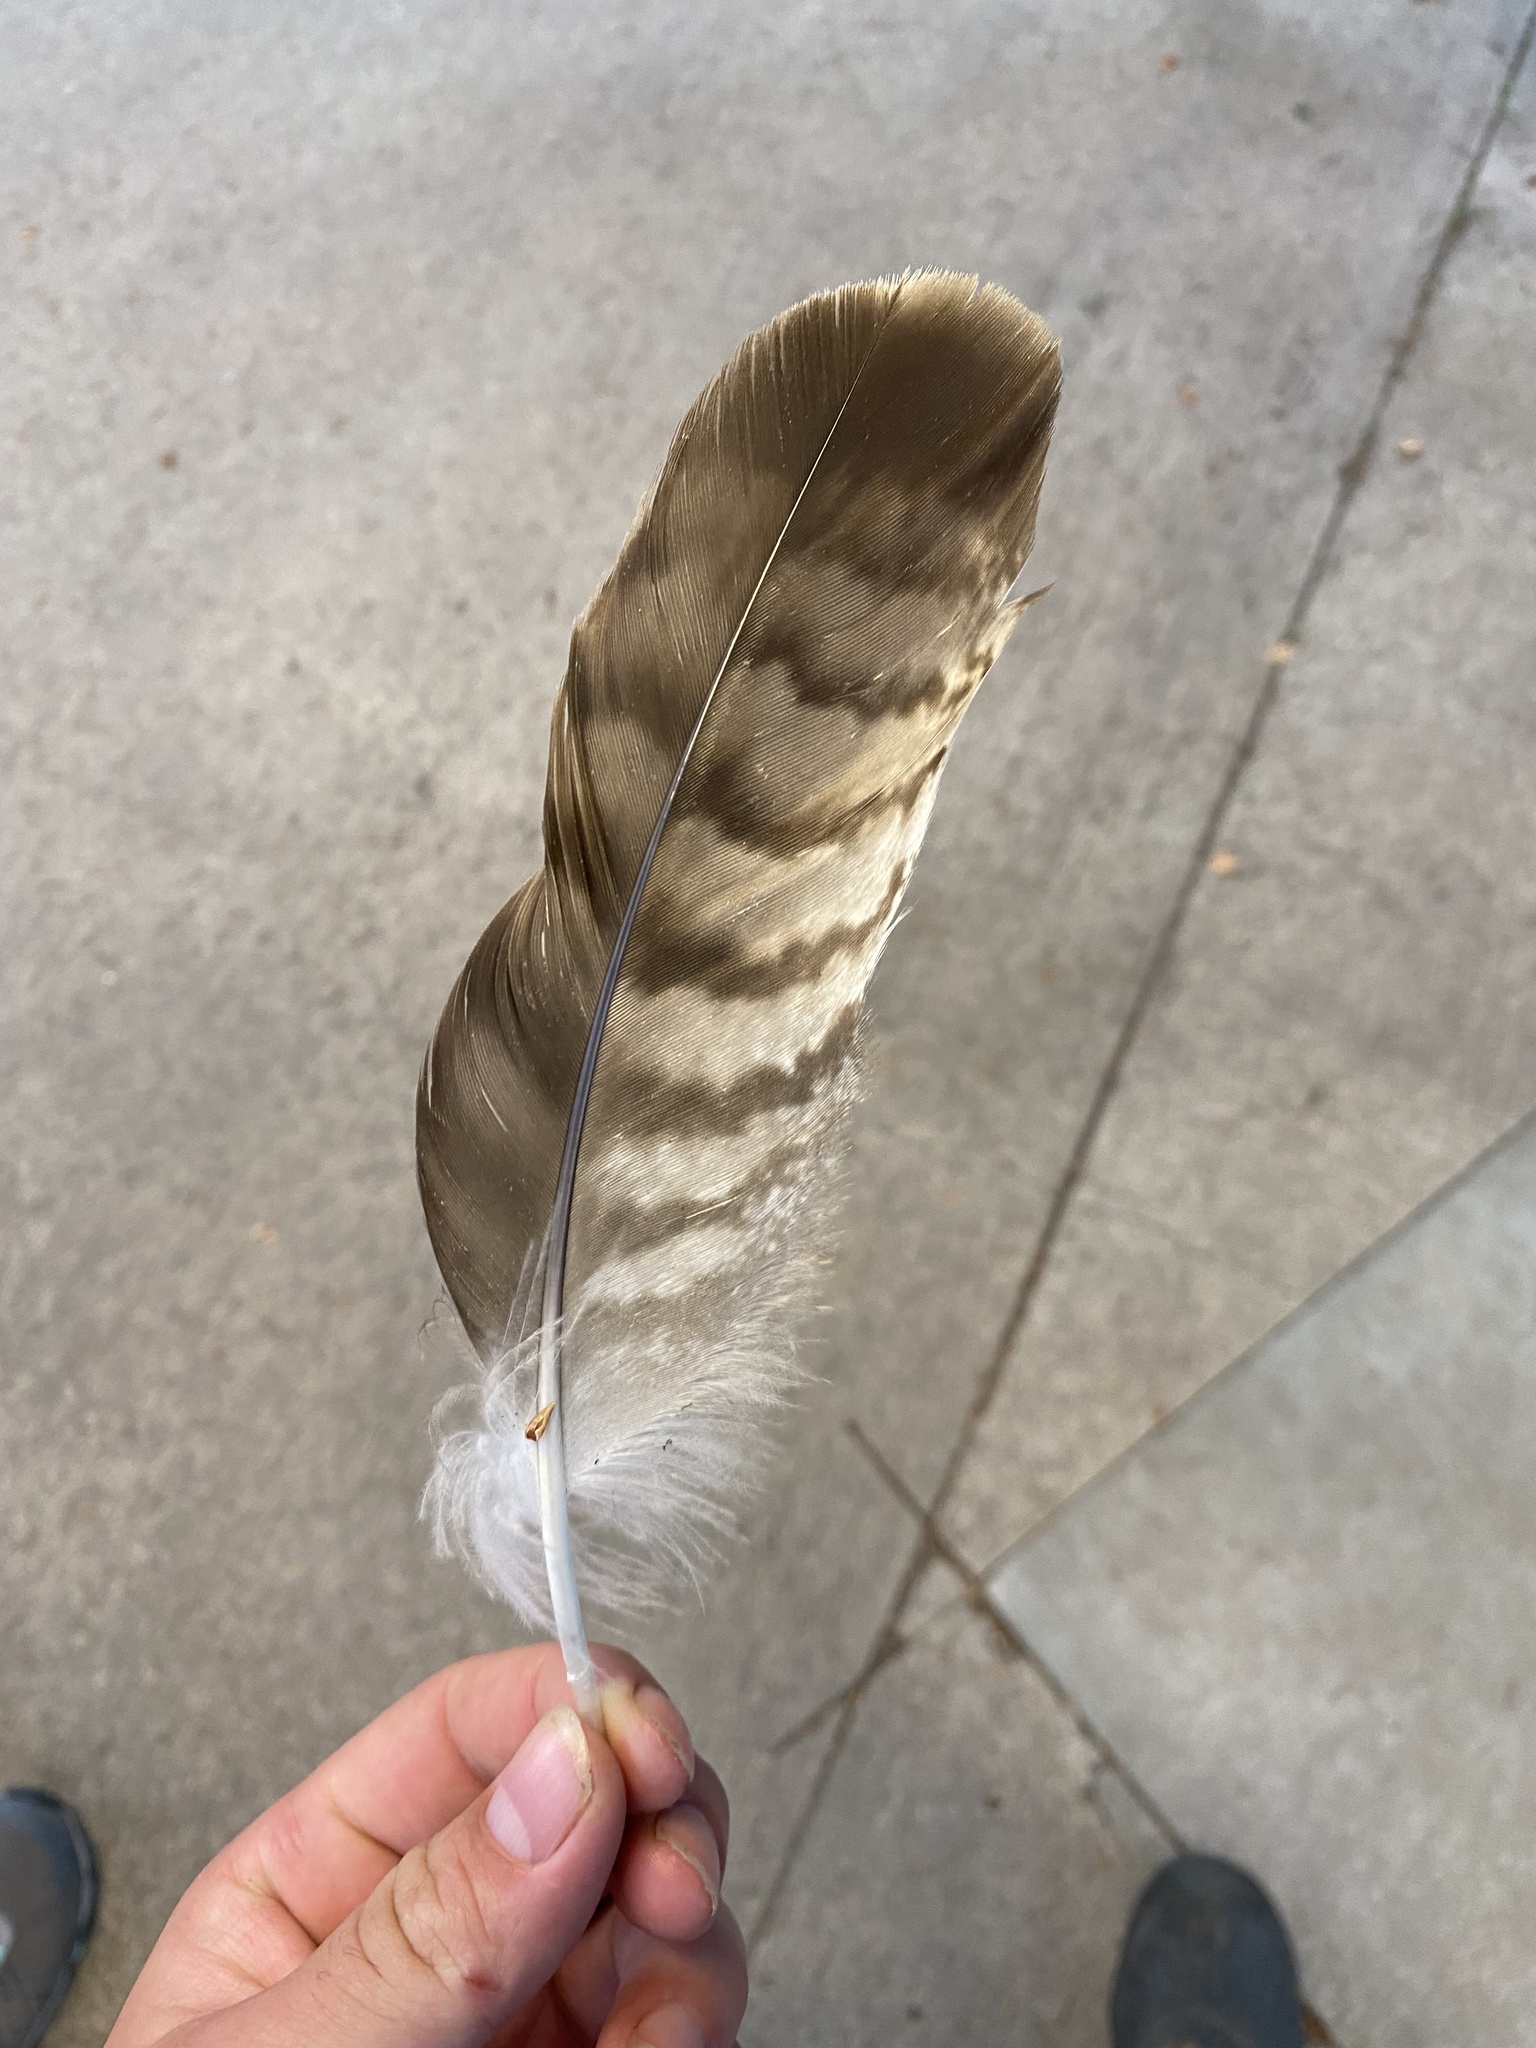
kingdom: Animalia
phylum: Chordata
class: Aves
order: Accipitriformes
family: Accipitridae
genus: Buteo
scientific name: Buteo jamaicensis
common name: Red-tailed hawk
